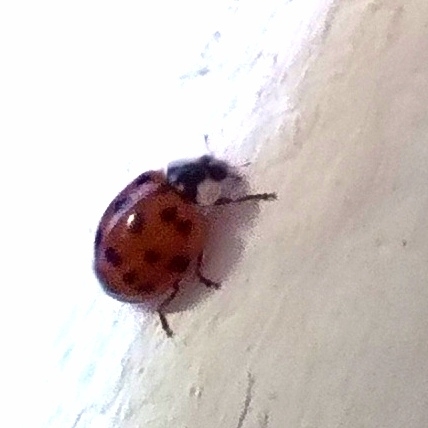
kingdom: Animalia
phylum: Arthropoda
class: Insecta
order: Coleoptera
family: Coccinellidae
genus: Harmonia
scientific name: Harmonia axyridis
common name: Harlequin ladybird
